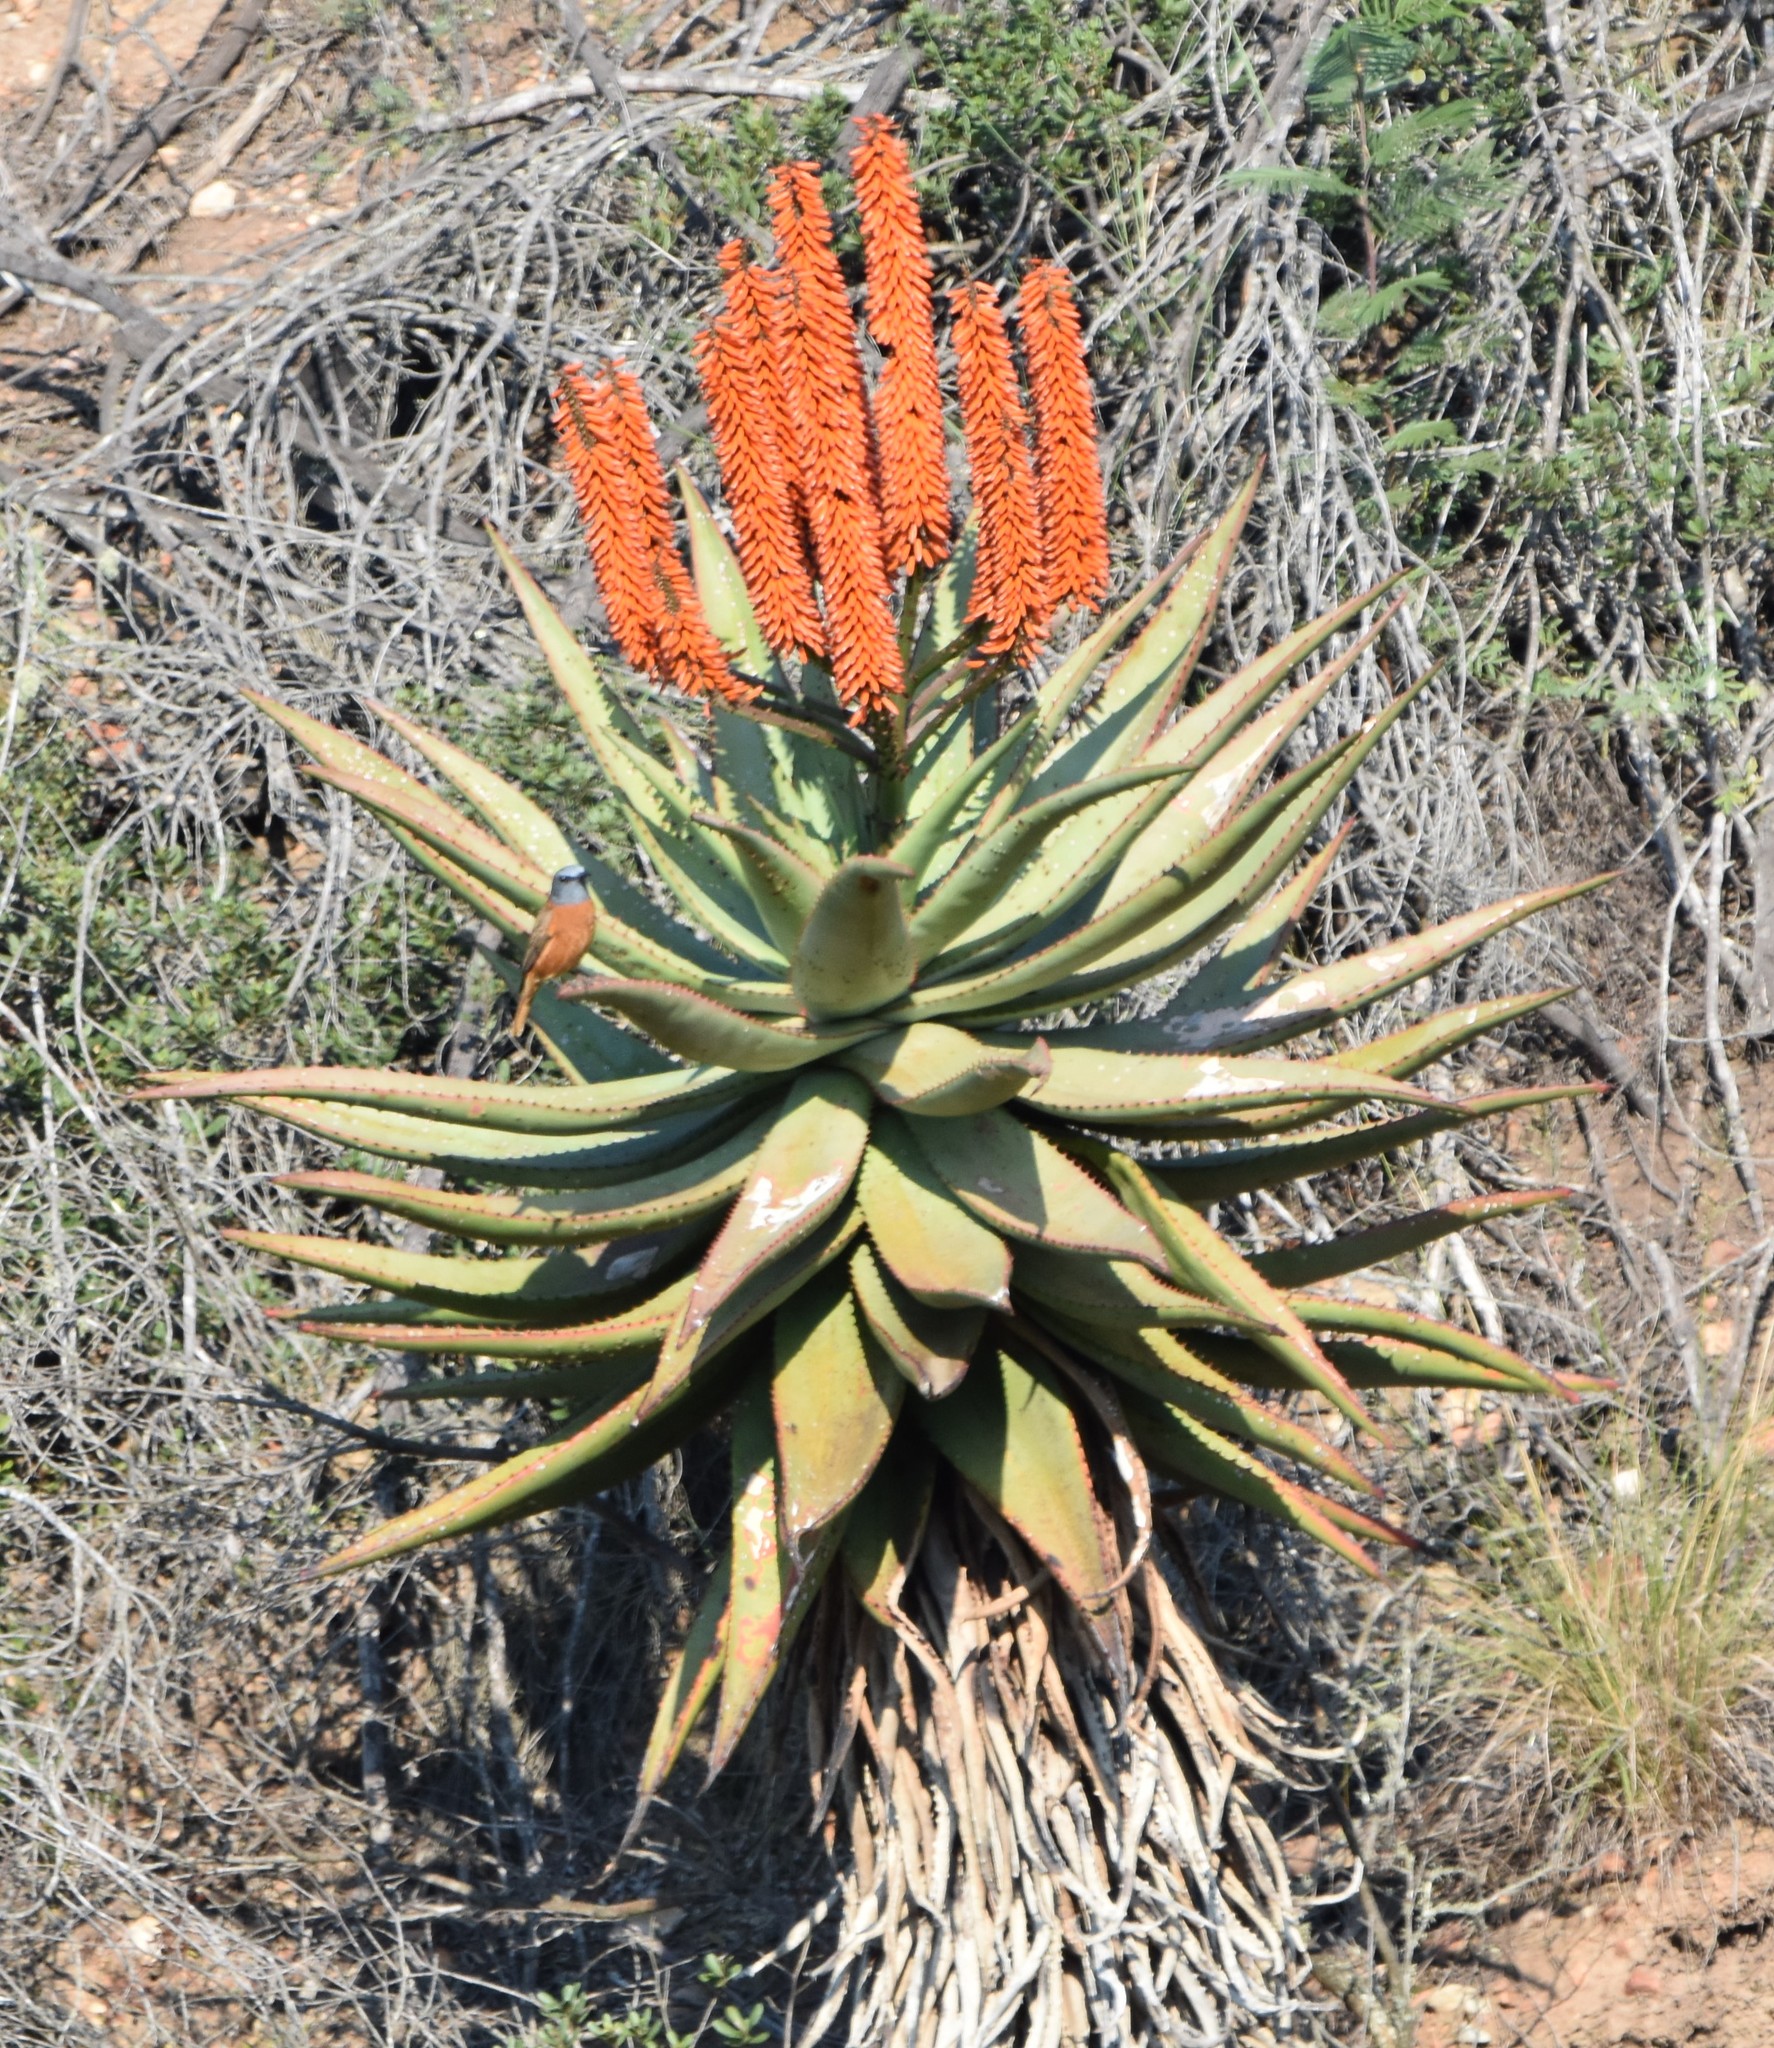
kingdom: Plantae
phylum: Tracheophyta
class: Liliopsida
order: Asparagales
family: Asphodelaceae
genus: Aloe
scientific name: Aloe ferox
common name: Bitter aloe
